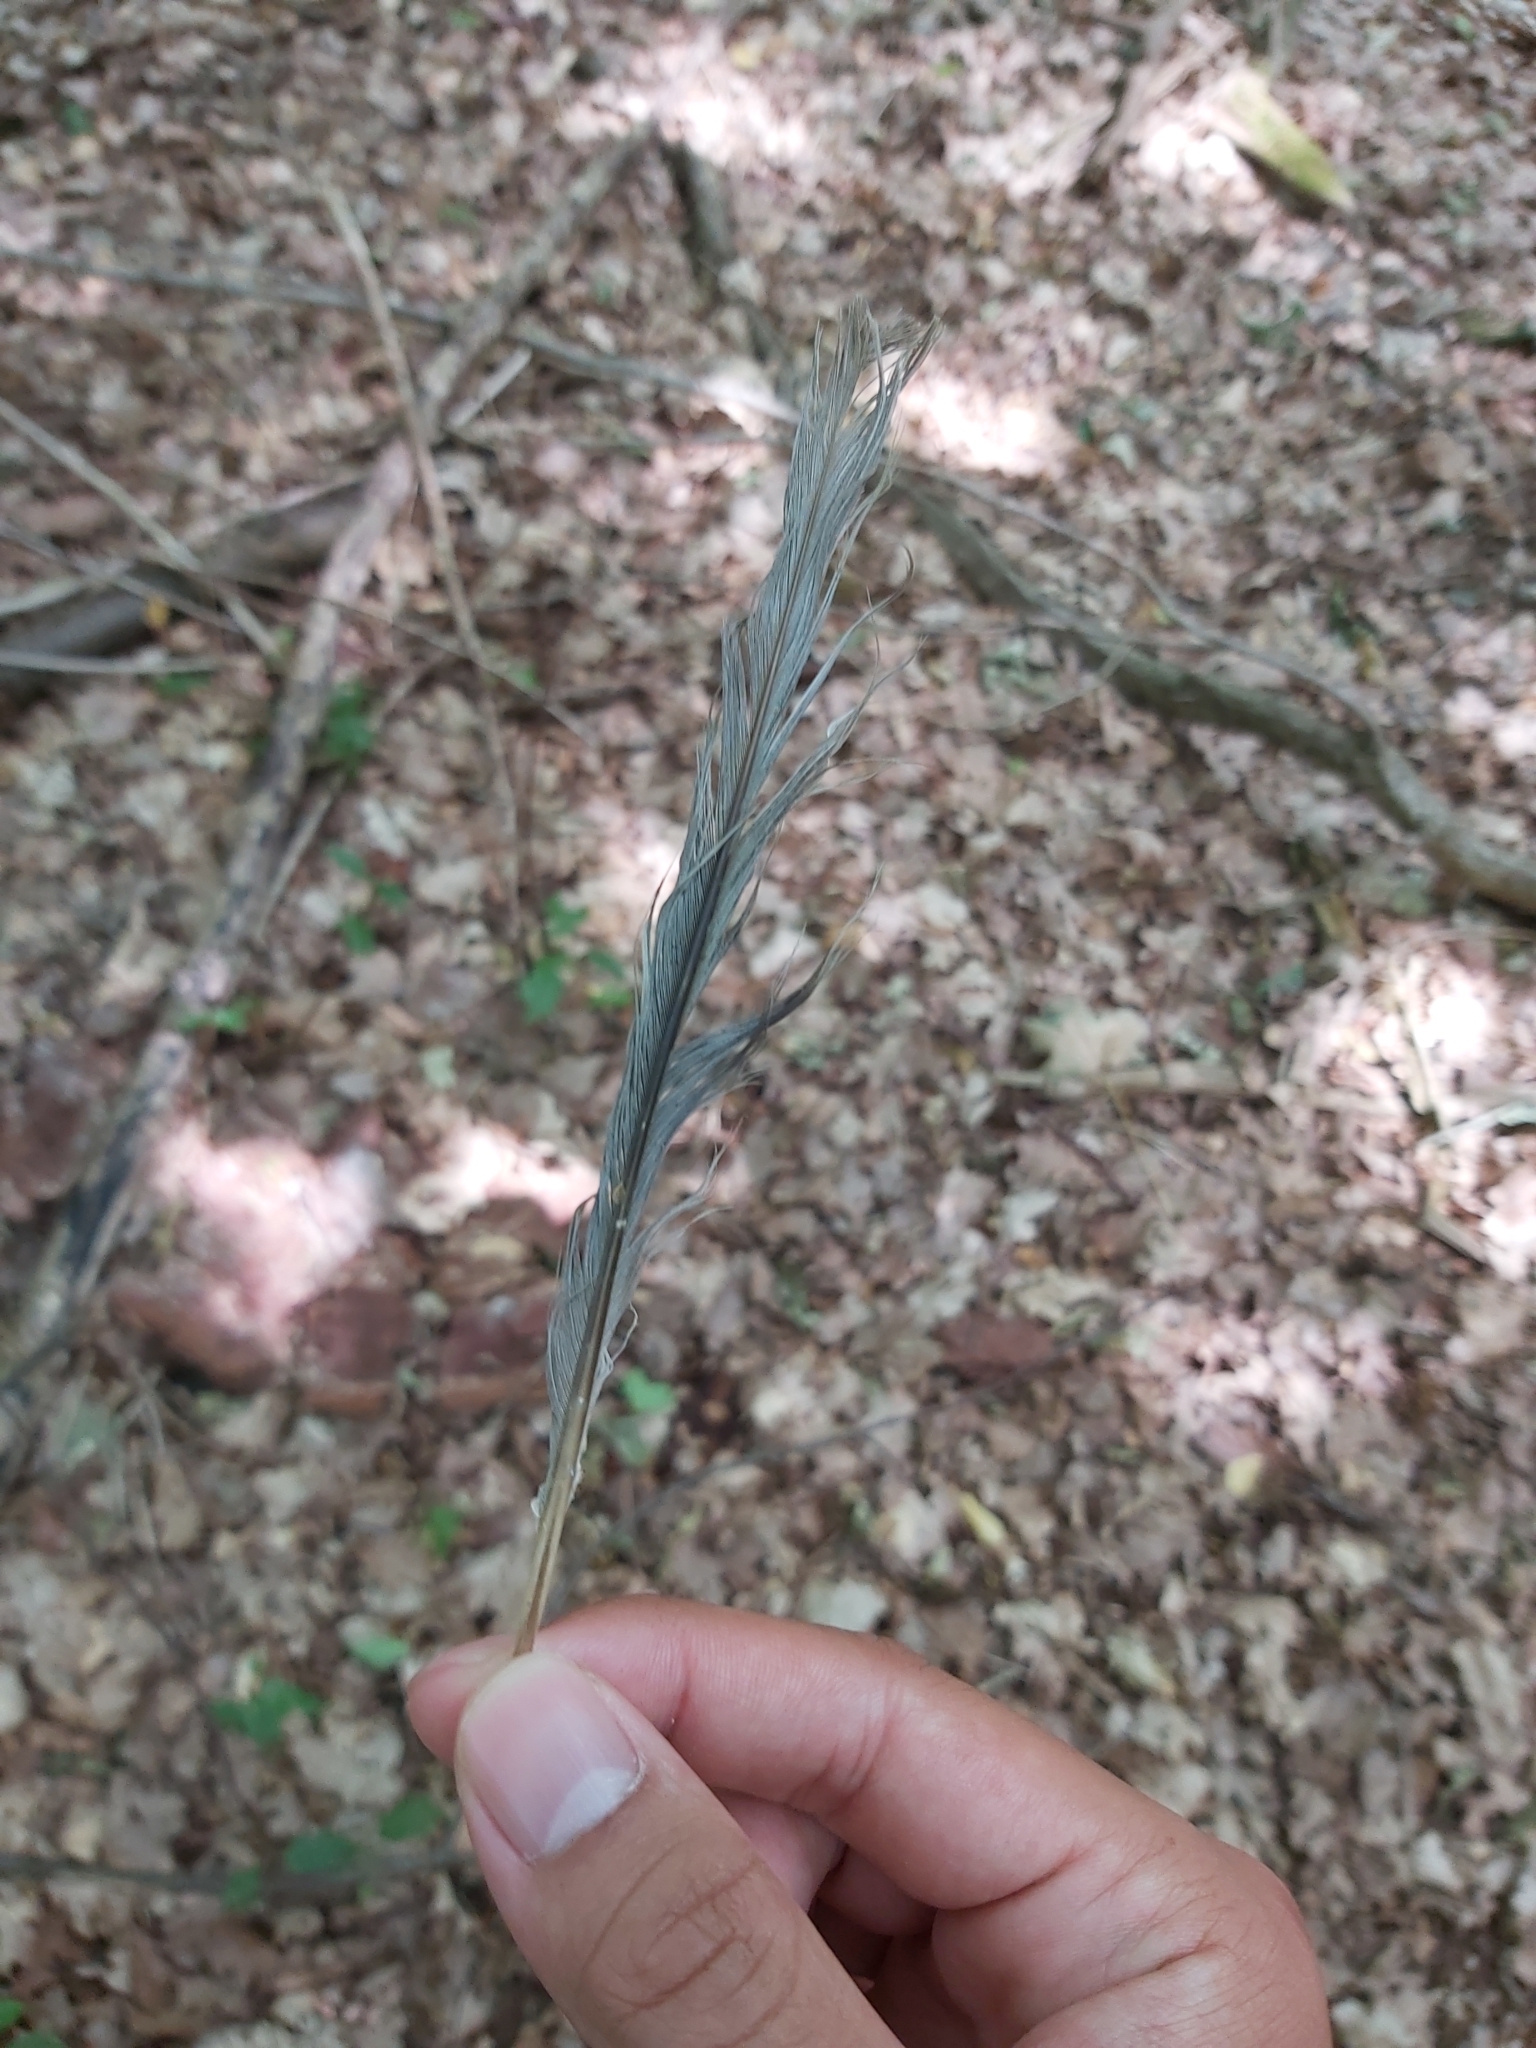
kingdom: Animalia
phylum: Chordata
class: Aves
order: Columbiformes
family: Columbidae
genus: Streptopelia
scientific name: Streptopelia decaocto
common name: Eurasian collared dove
